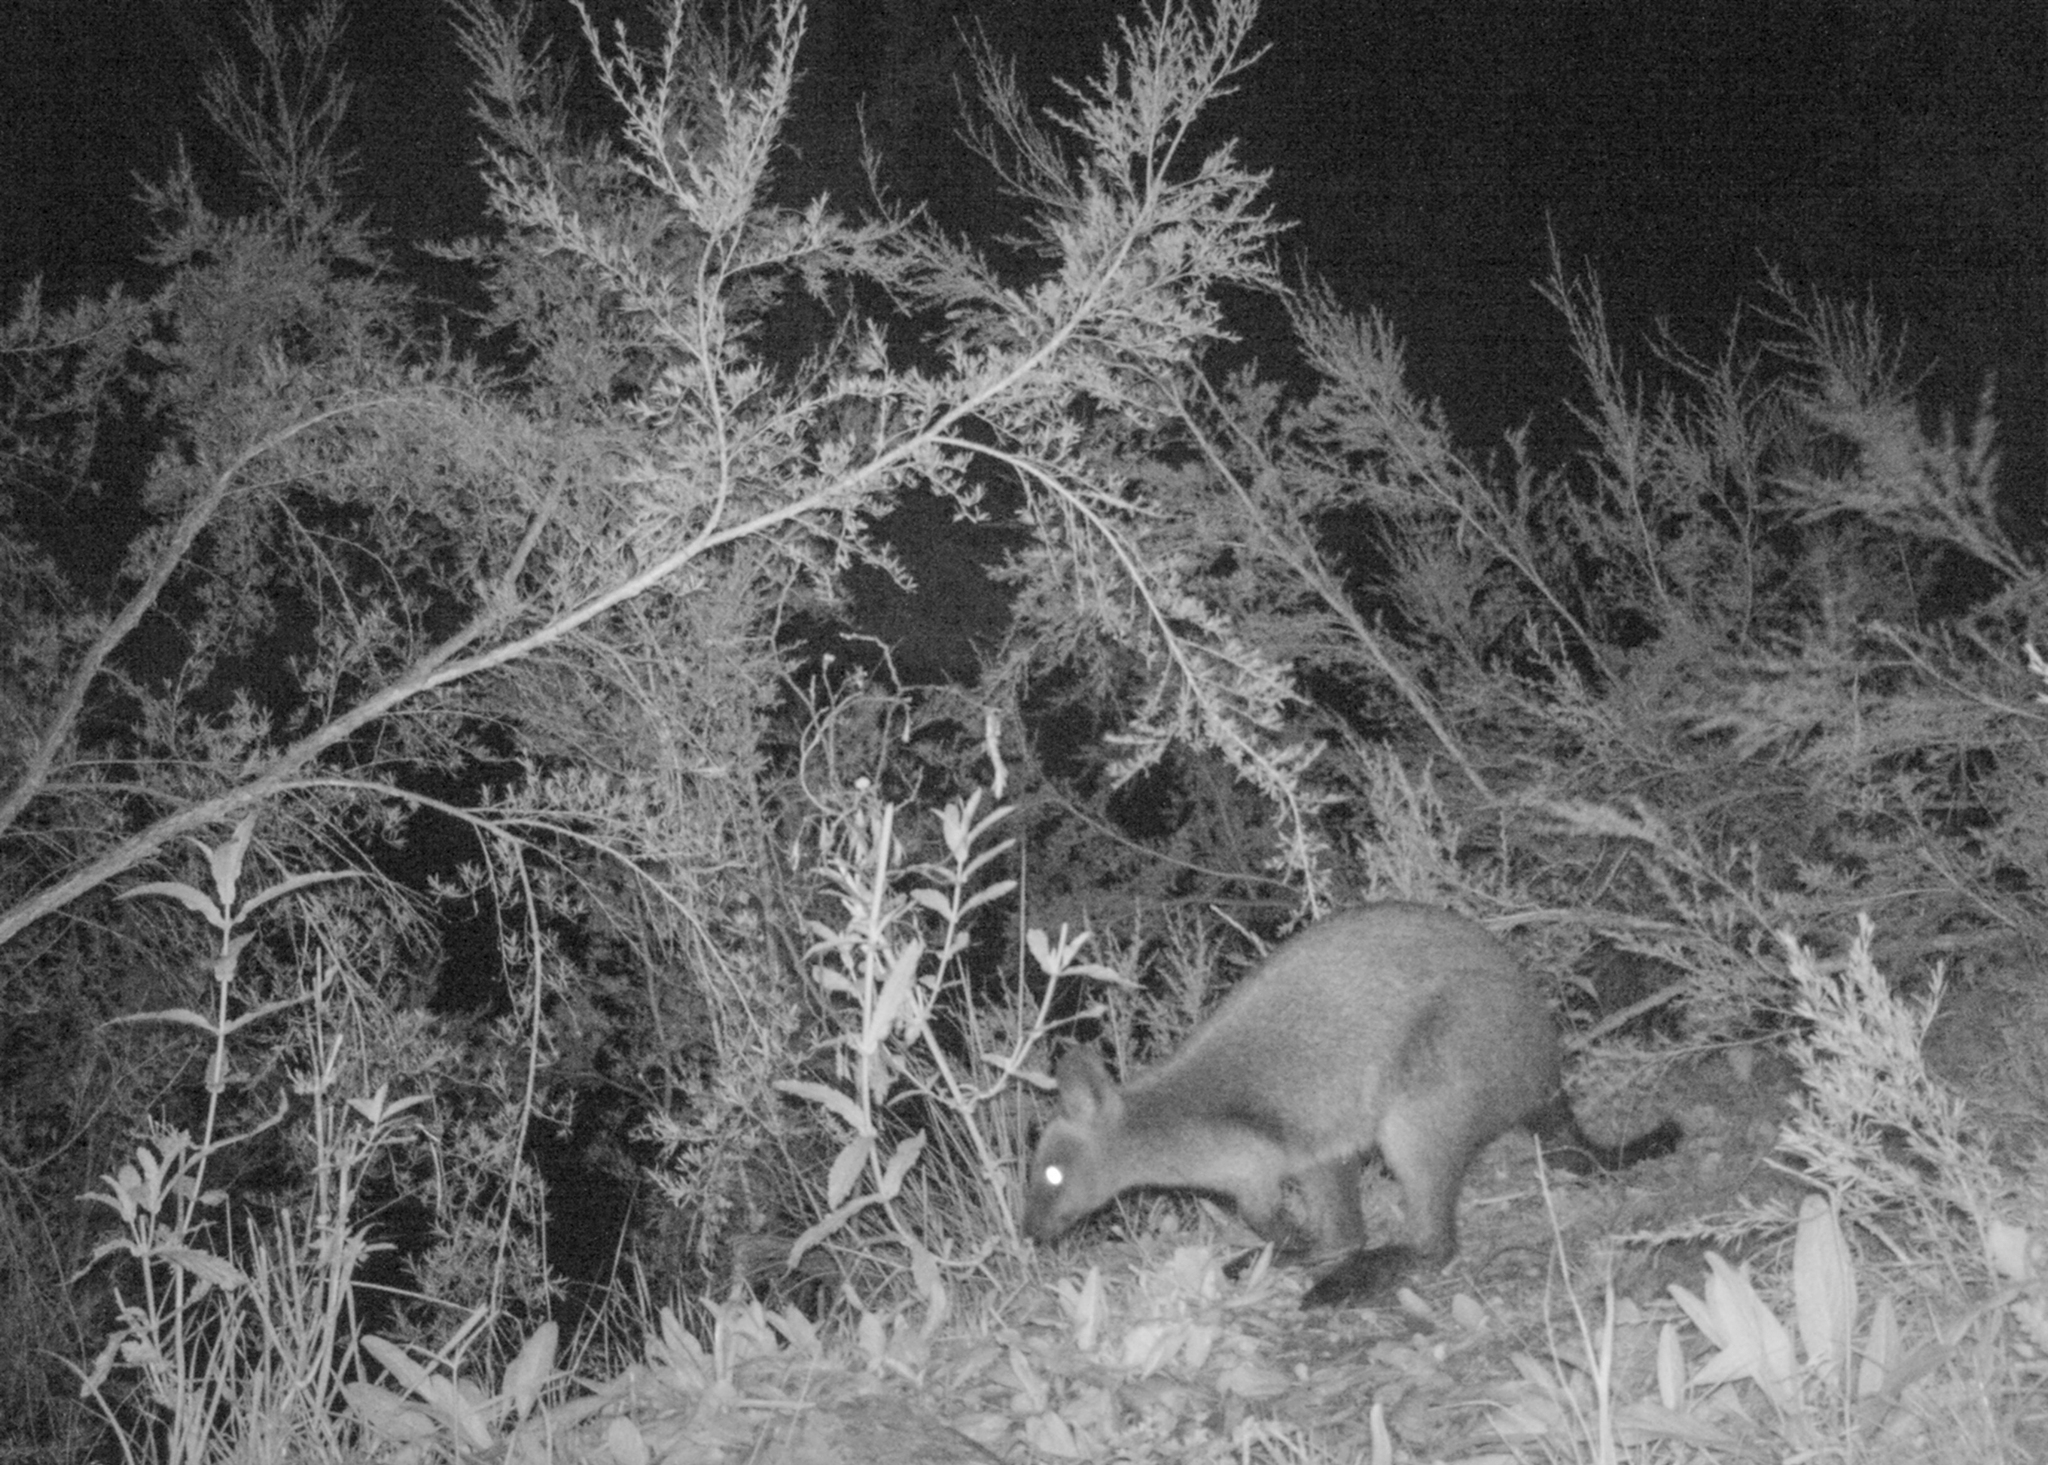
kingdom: Animalia
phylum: Chordata
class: Mammalia
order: Diprotodontia
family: Macropodidae
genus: Wallabia
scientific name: Wallabia bicolor
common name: Swamp wallaby
